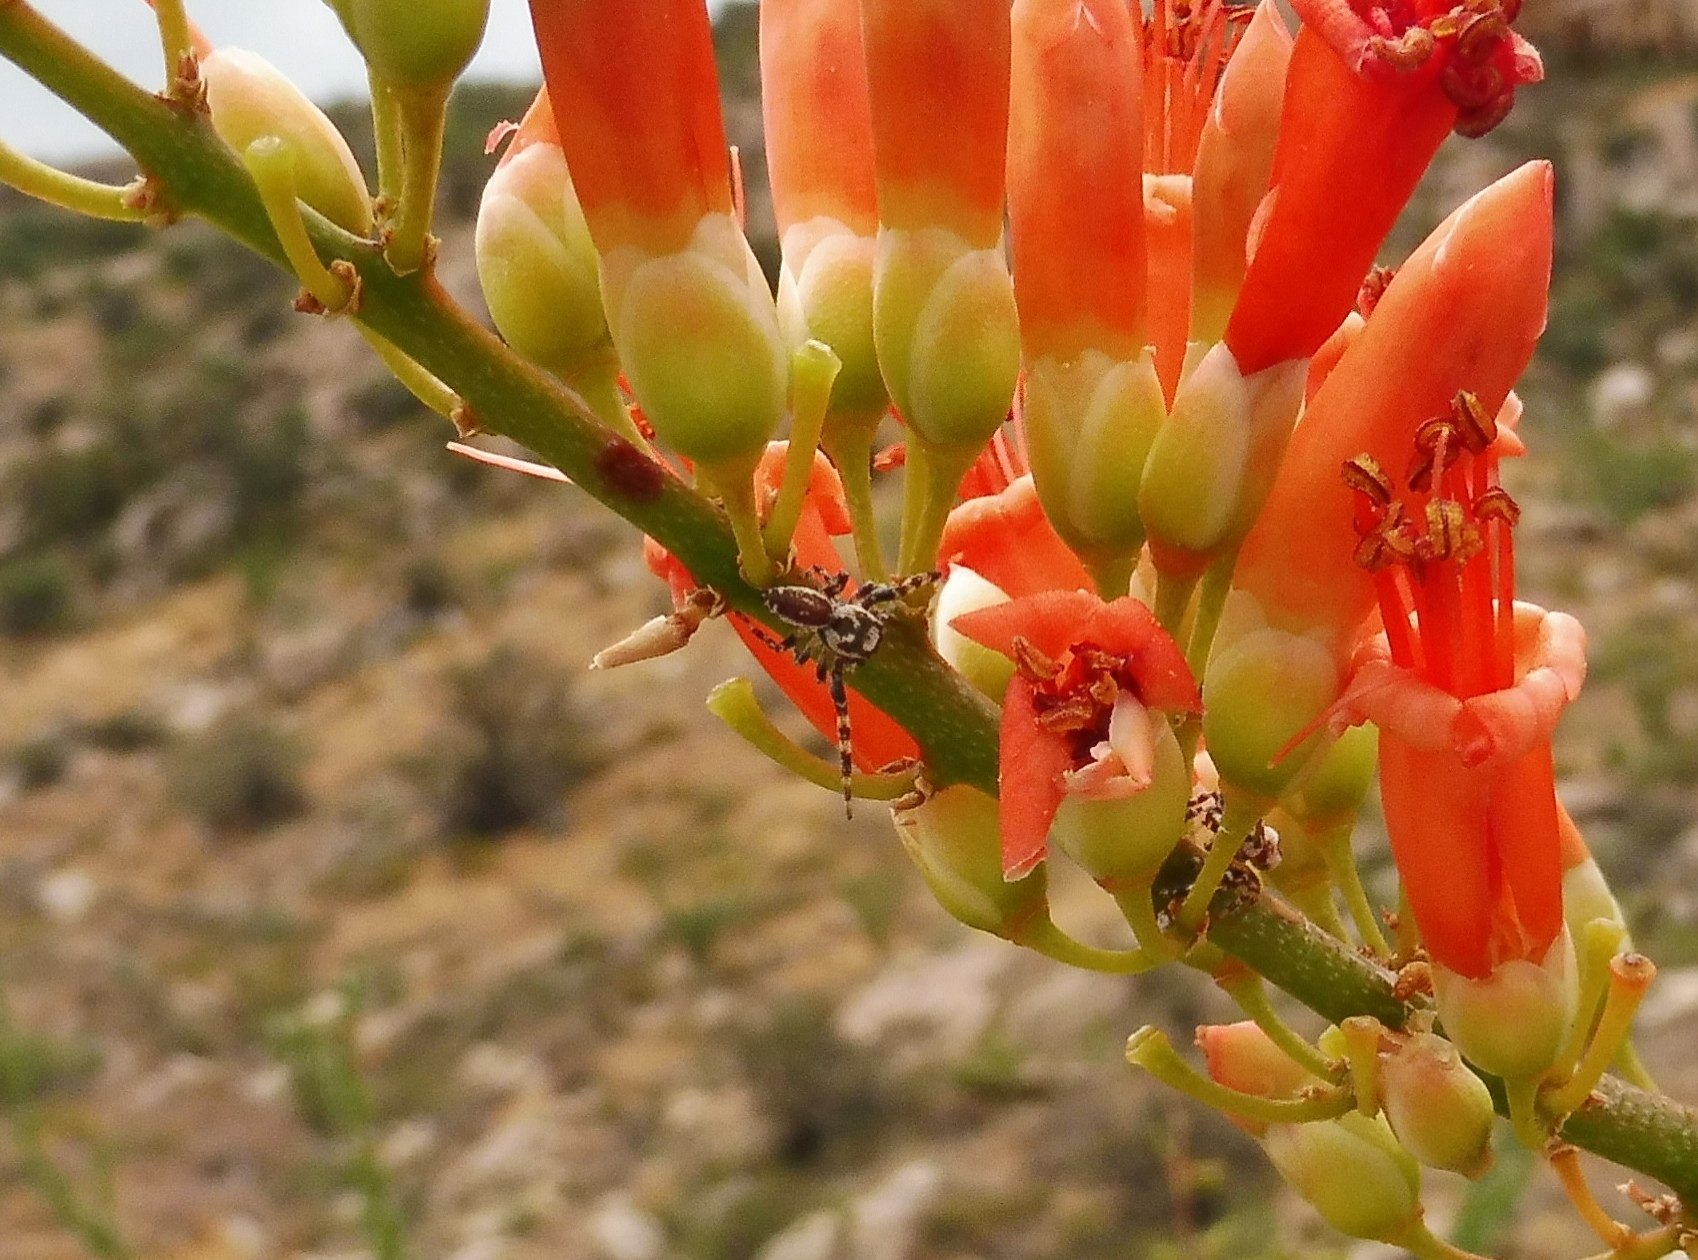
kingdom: Animalia
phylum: Arthropoda
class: Arachnida
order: Araneae
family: Salticidae
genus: Pelegrina
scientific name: Pelegrina dithalea
